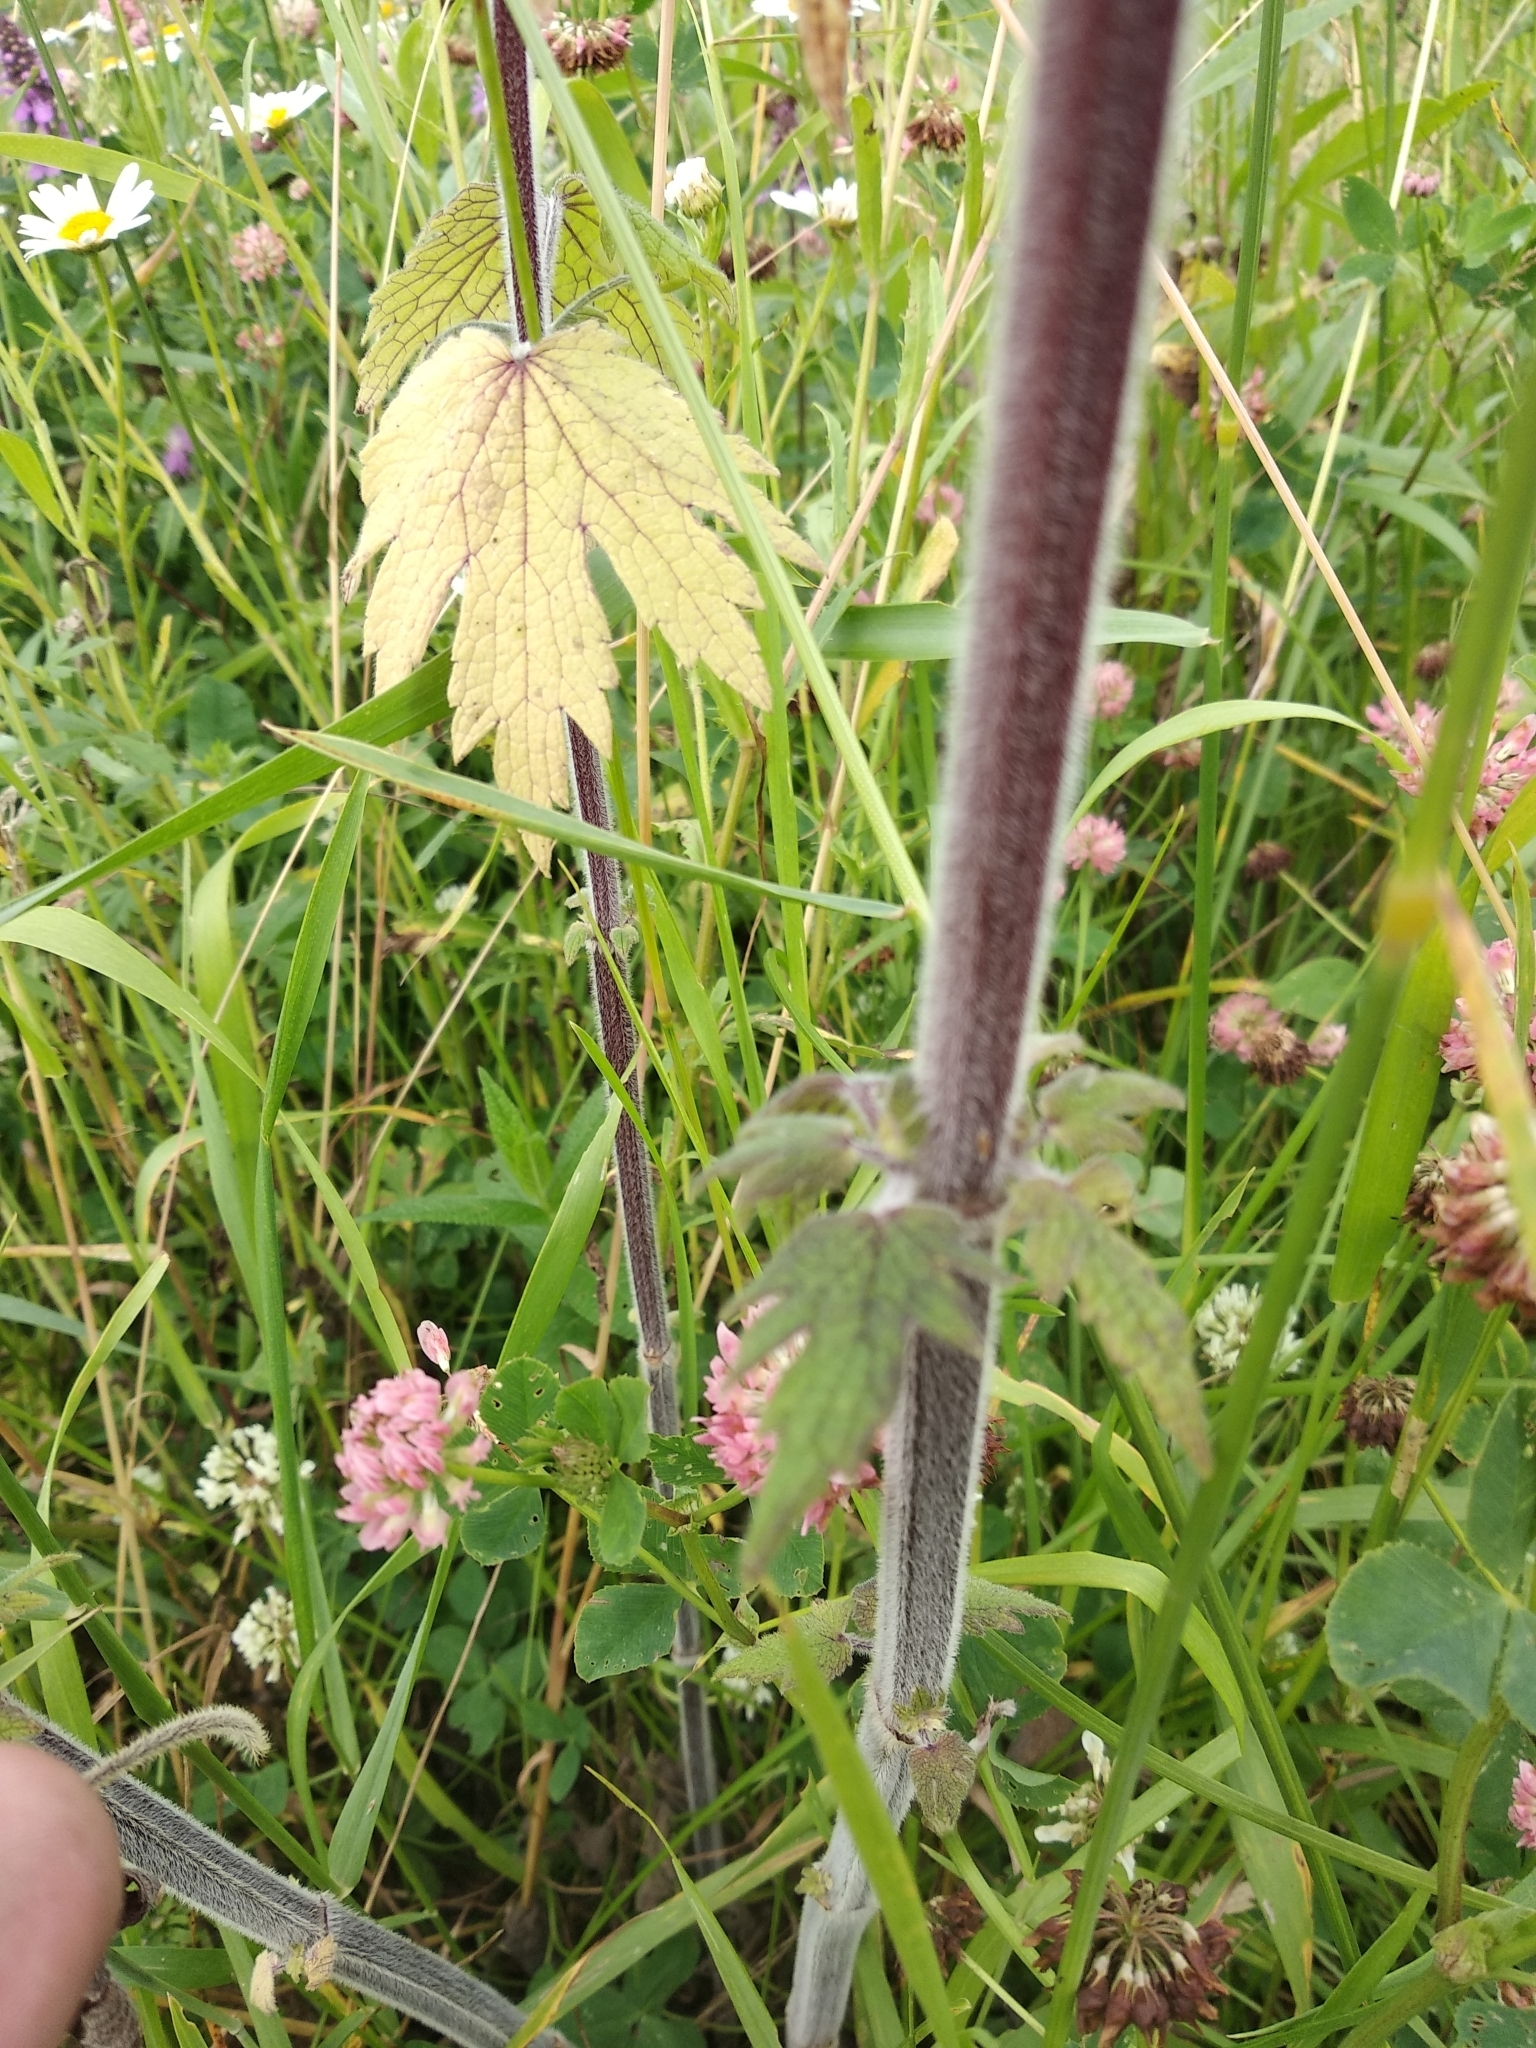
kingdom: Plantae
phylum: Tracheophyta
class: Magnoliopsida
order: Lamiales
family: Lamiaceae
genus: Leonurus
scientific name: Leonurus quinquelobatus
